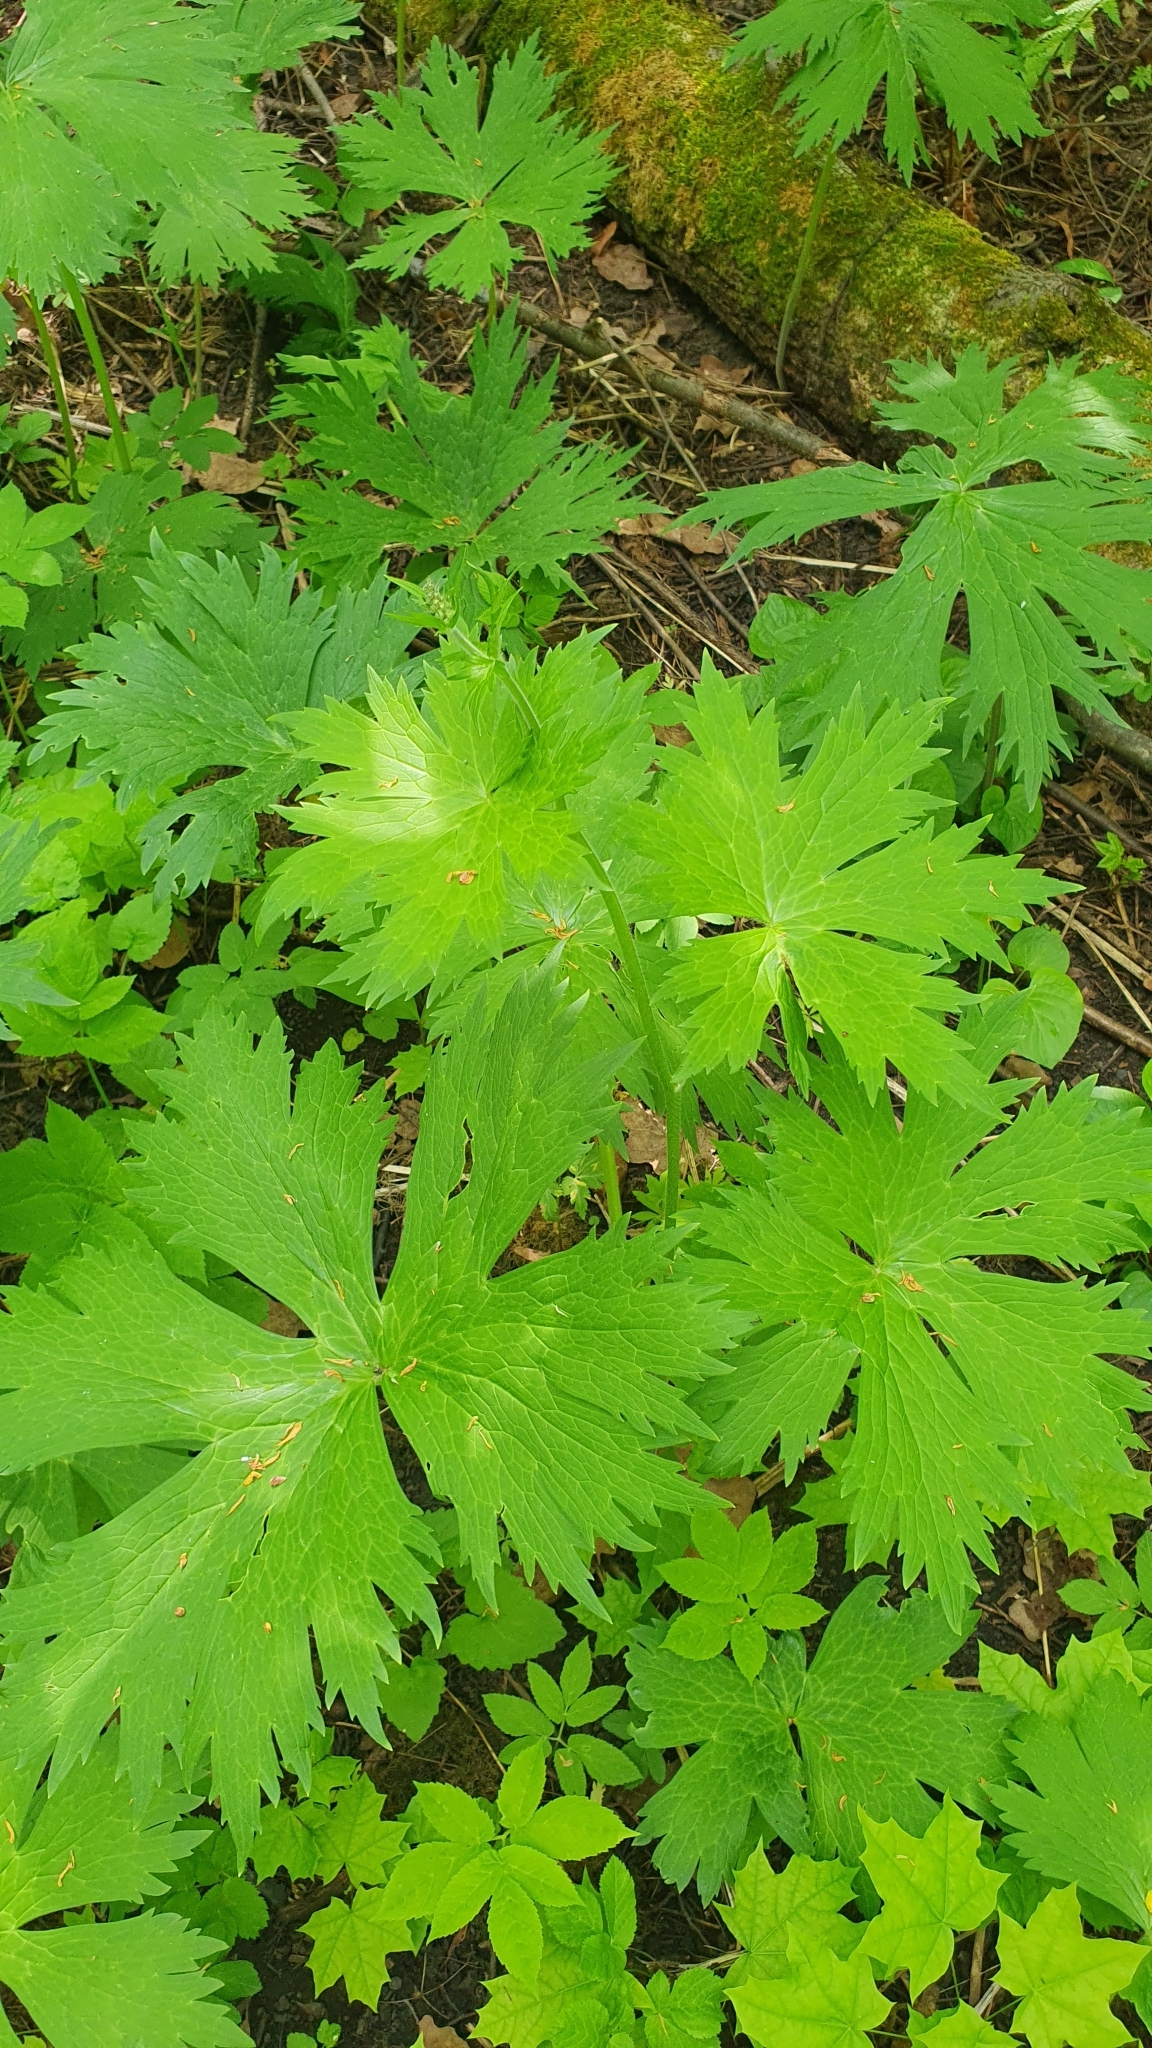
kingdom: Plantae
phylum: Tracheophyta
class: Magnoliopsida
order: Ranunculales
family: Ranunculaceae
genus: Aconitum
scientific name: Aconitum septentrionale
